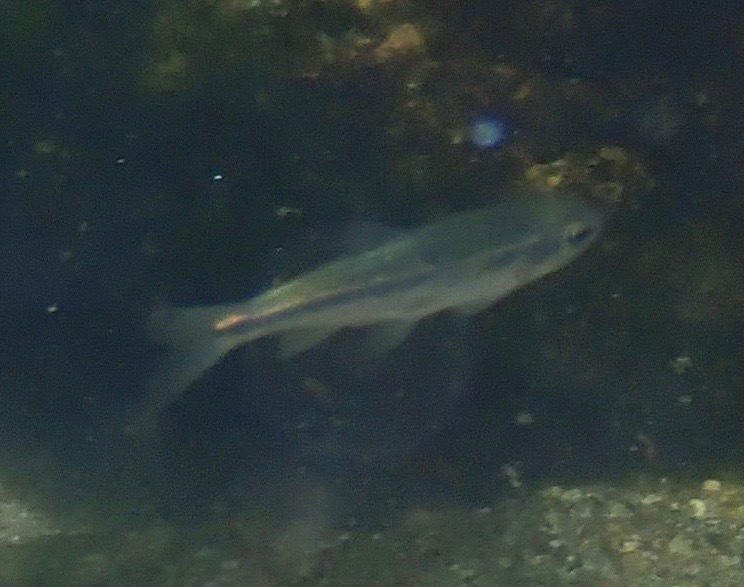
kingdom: Animalia
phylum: Chordata
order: Cypriniformes
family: Cyprinidae
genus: Richardsonius
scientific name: Richardsonius egregius
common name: Lahontan redside
